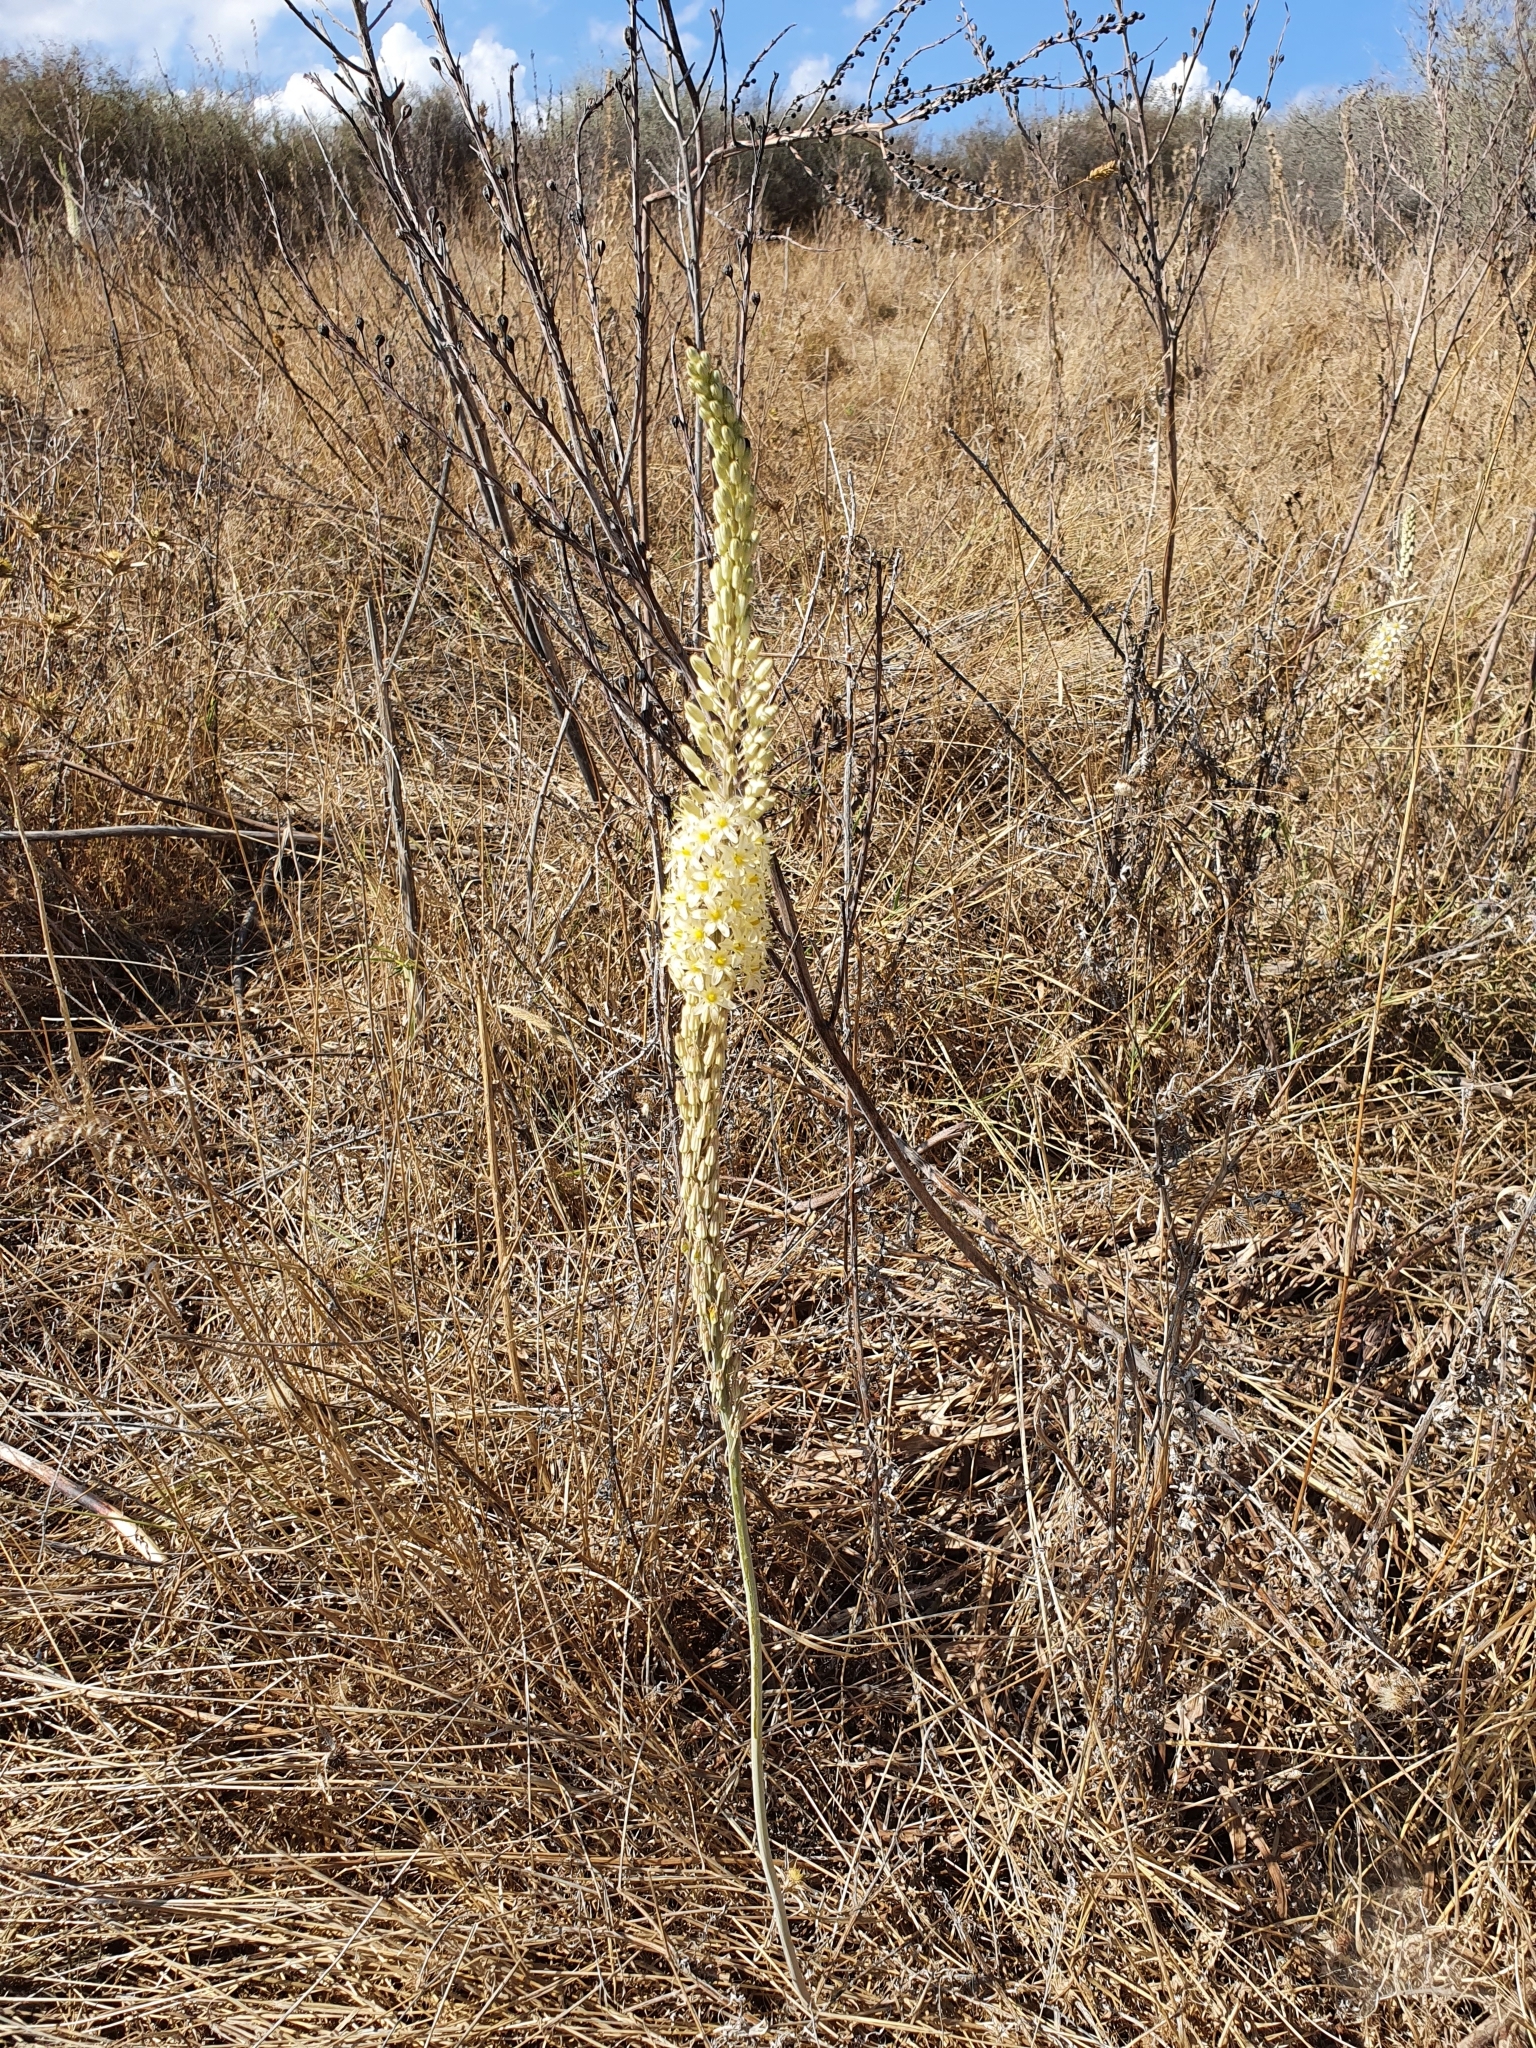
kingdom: Plantae
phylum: Tracheophyta
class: Liliopsida
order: Asparagales
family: Asparagaceae
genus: Drimia
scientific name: Drimia anthericoides
